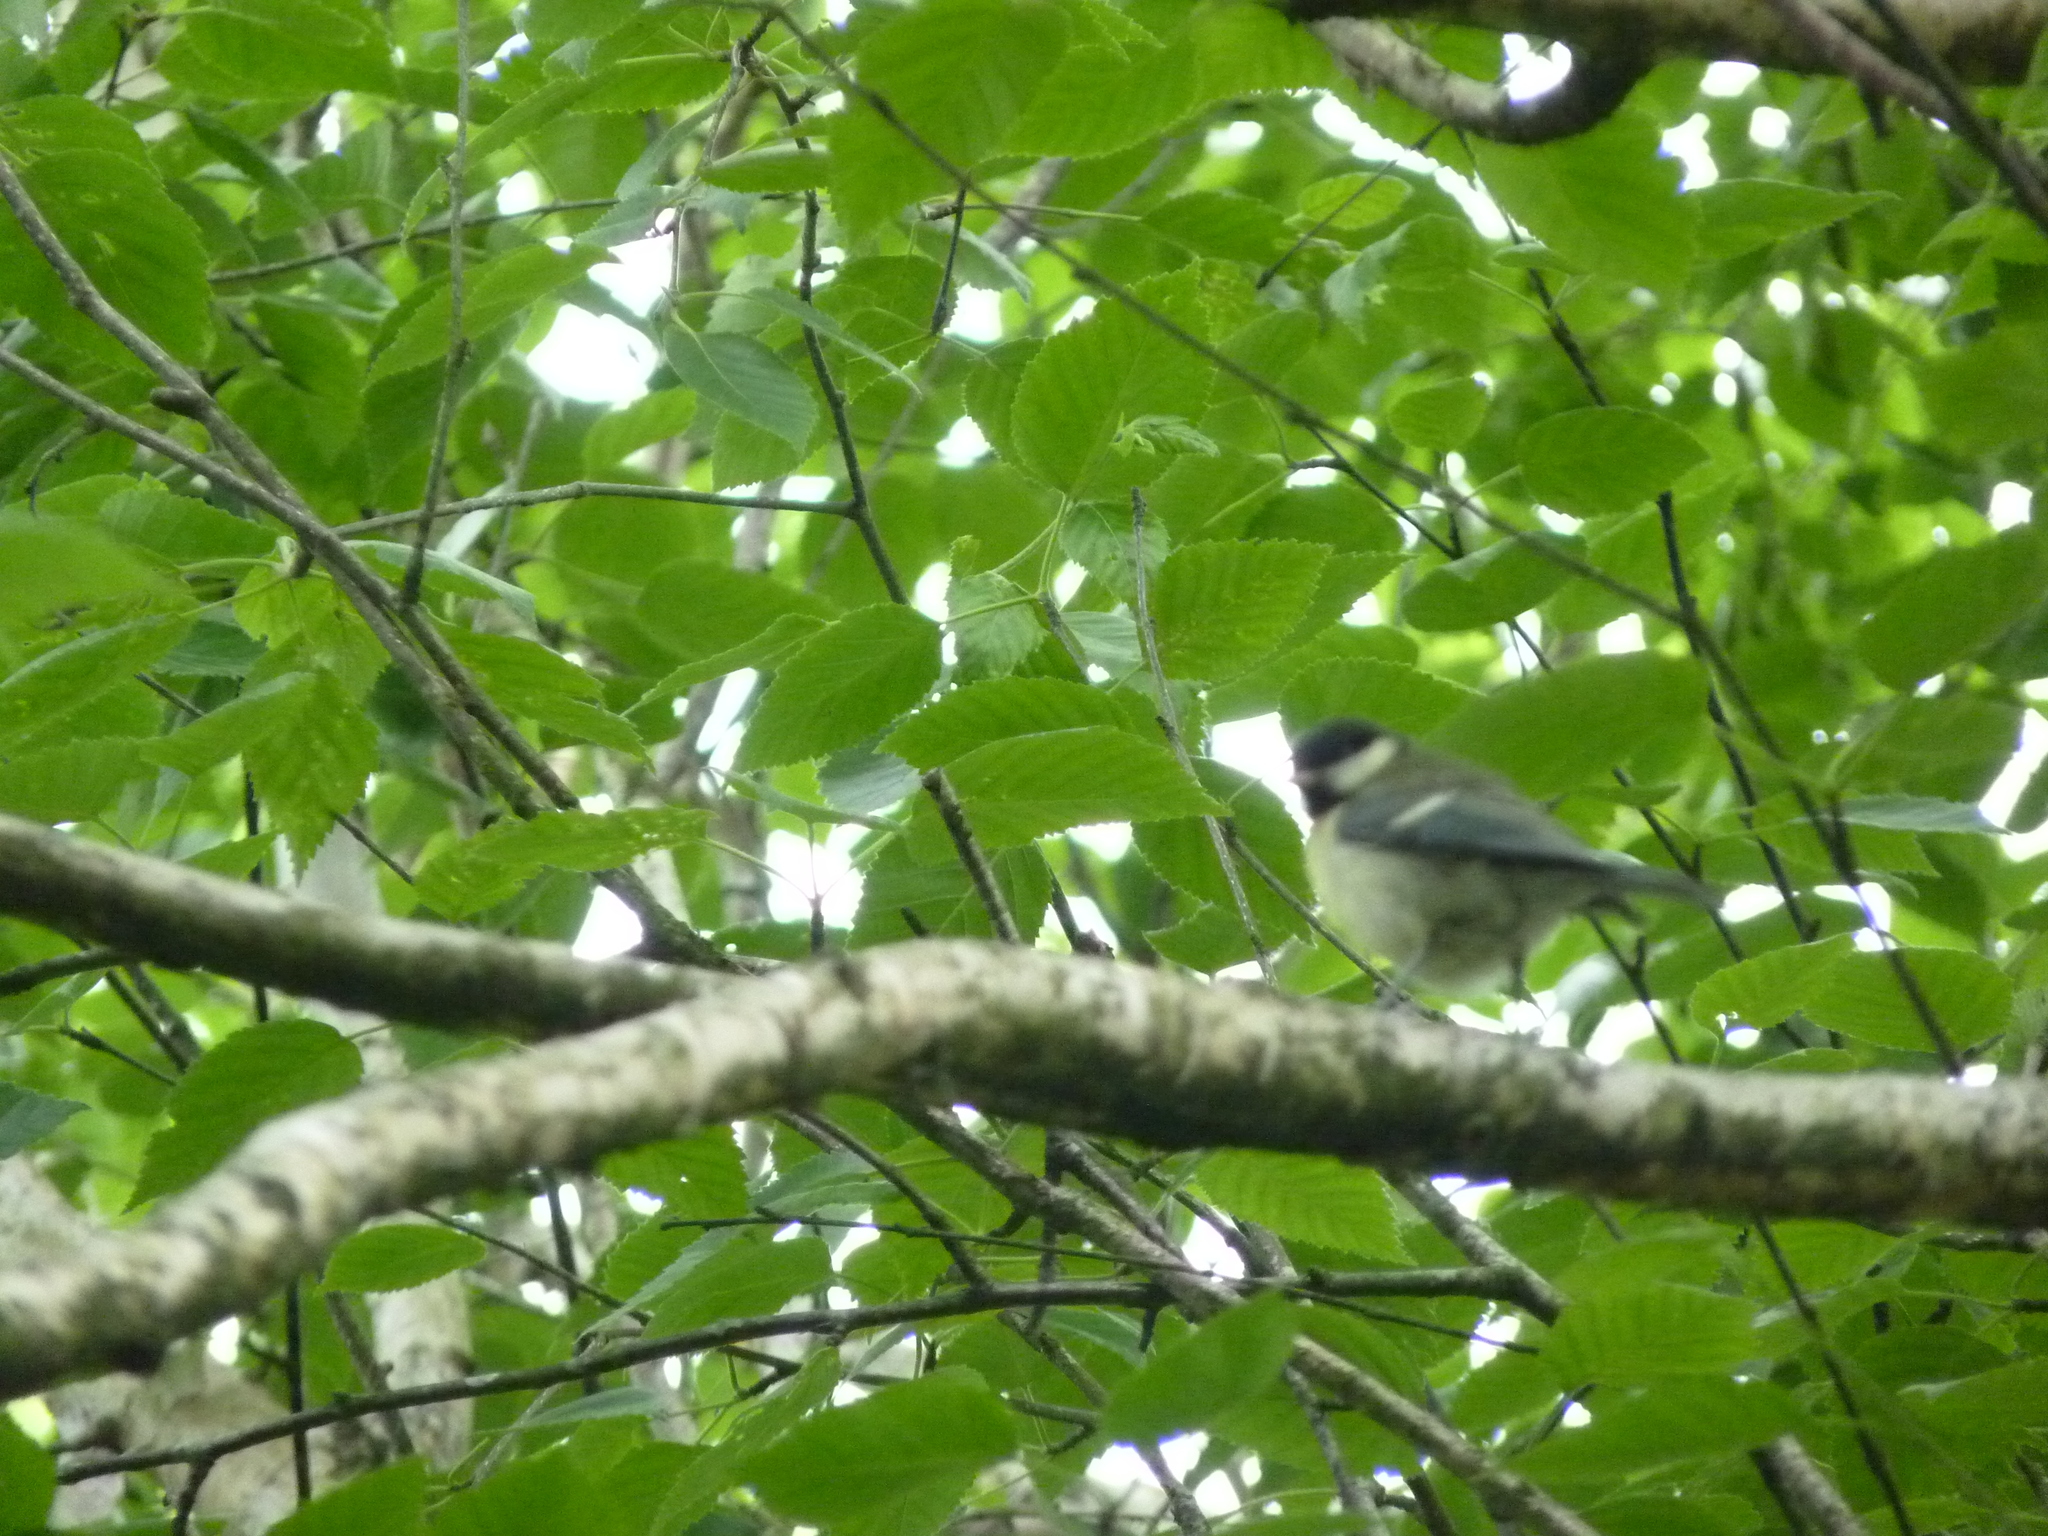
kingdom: Animalia
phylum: Chordata
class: Aves
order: Passeriformes
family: Paridae
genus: Parus
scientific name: Parus major
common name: Great tit
